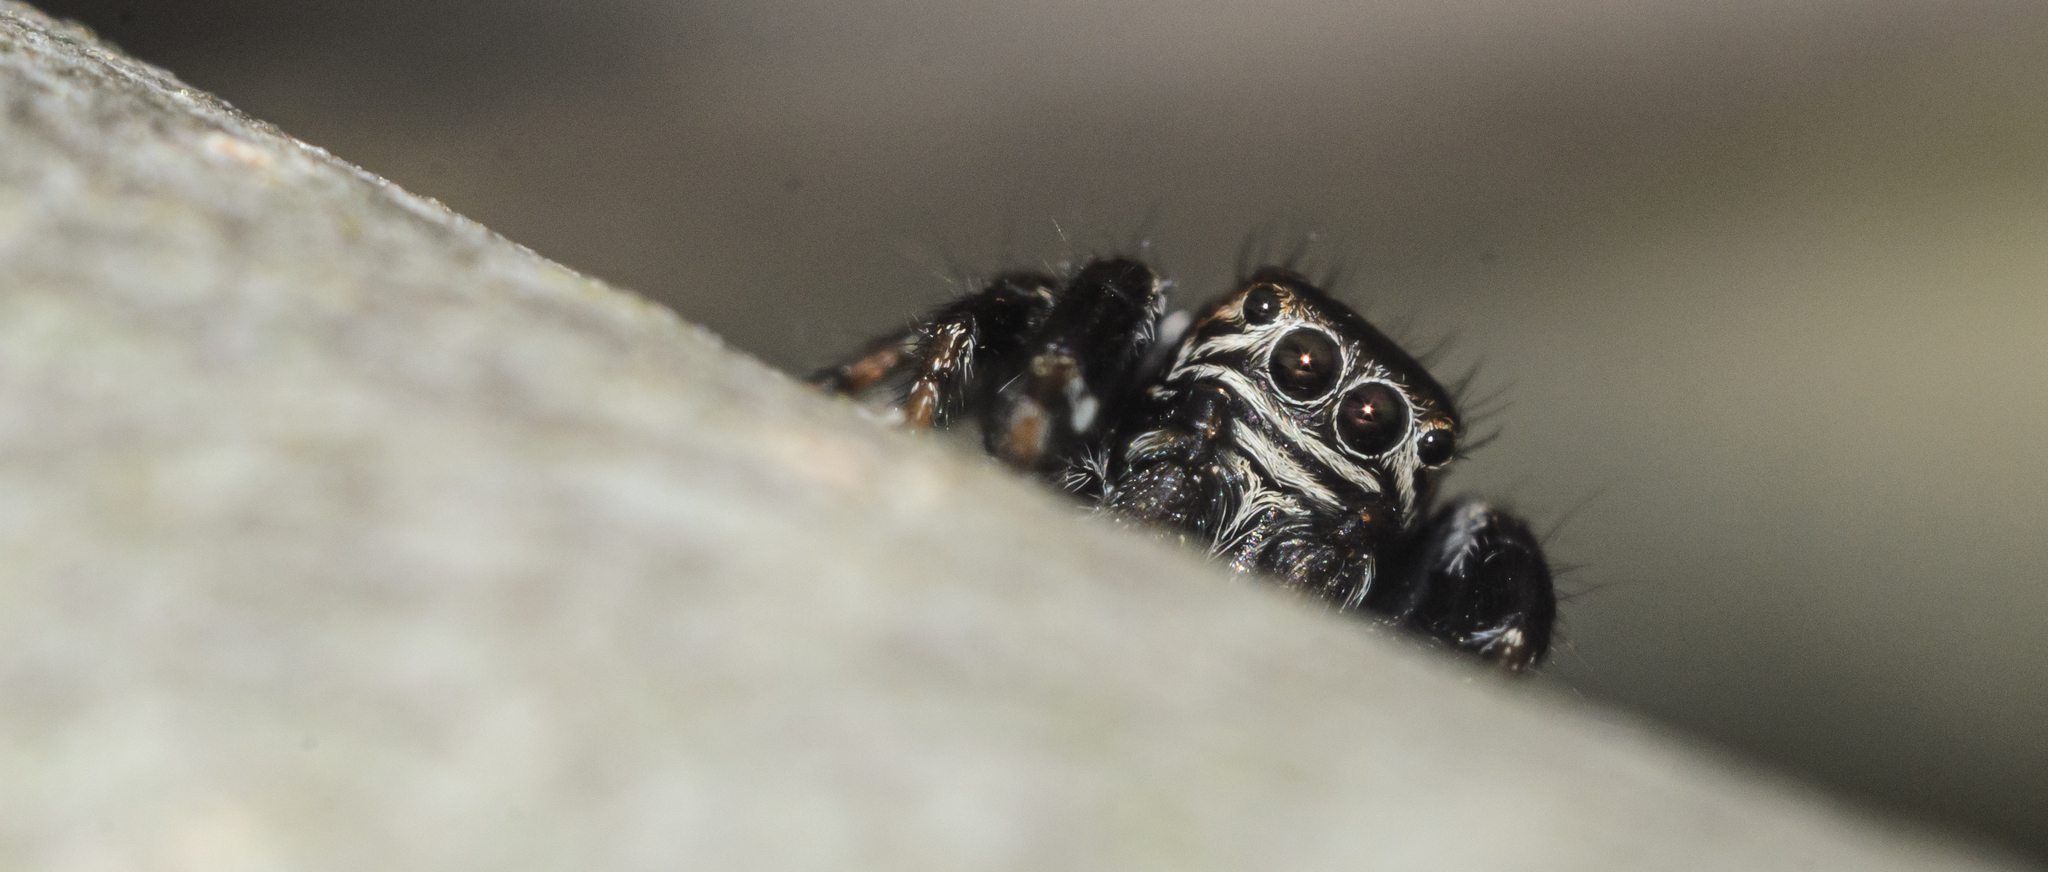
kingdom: Animalia
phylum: Arthropoda
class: Arachnida
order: Araneae
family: Salticidae
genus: Evarcha
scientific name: Evarcha arcuata
